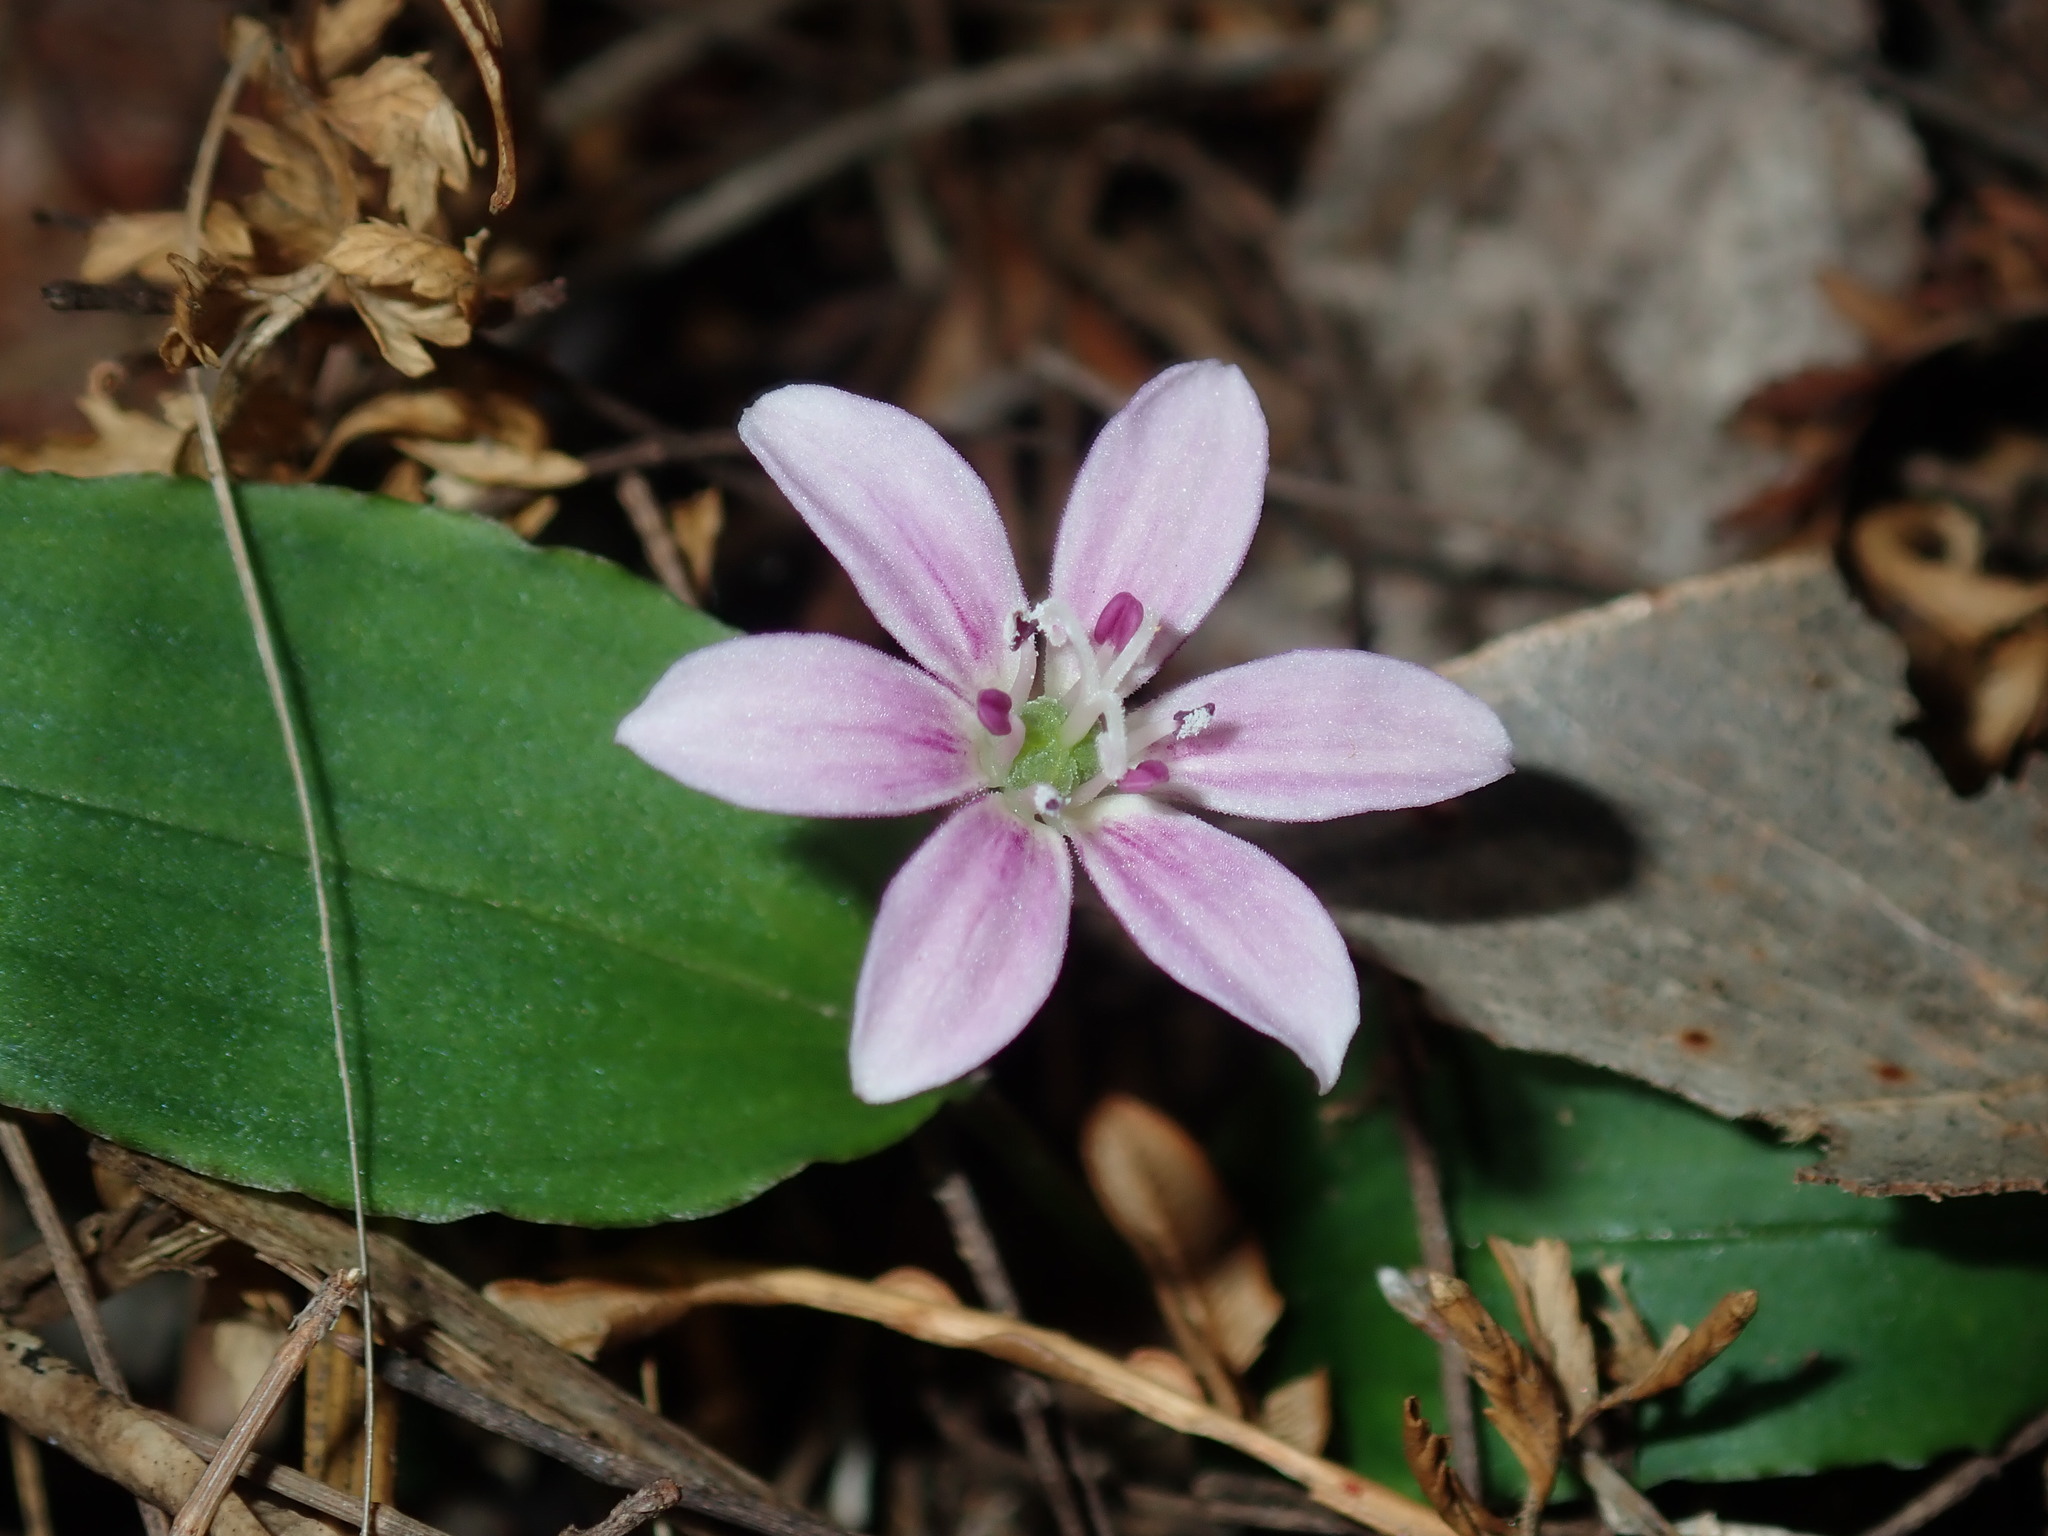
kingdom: Plantae
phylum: Tracheophyta
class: Liliopsida
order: Liliales
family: Colchicaceae
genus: Schelhammera
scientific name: Schelhammera undulata
